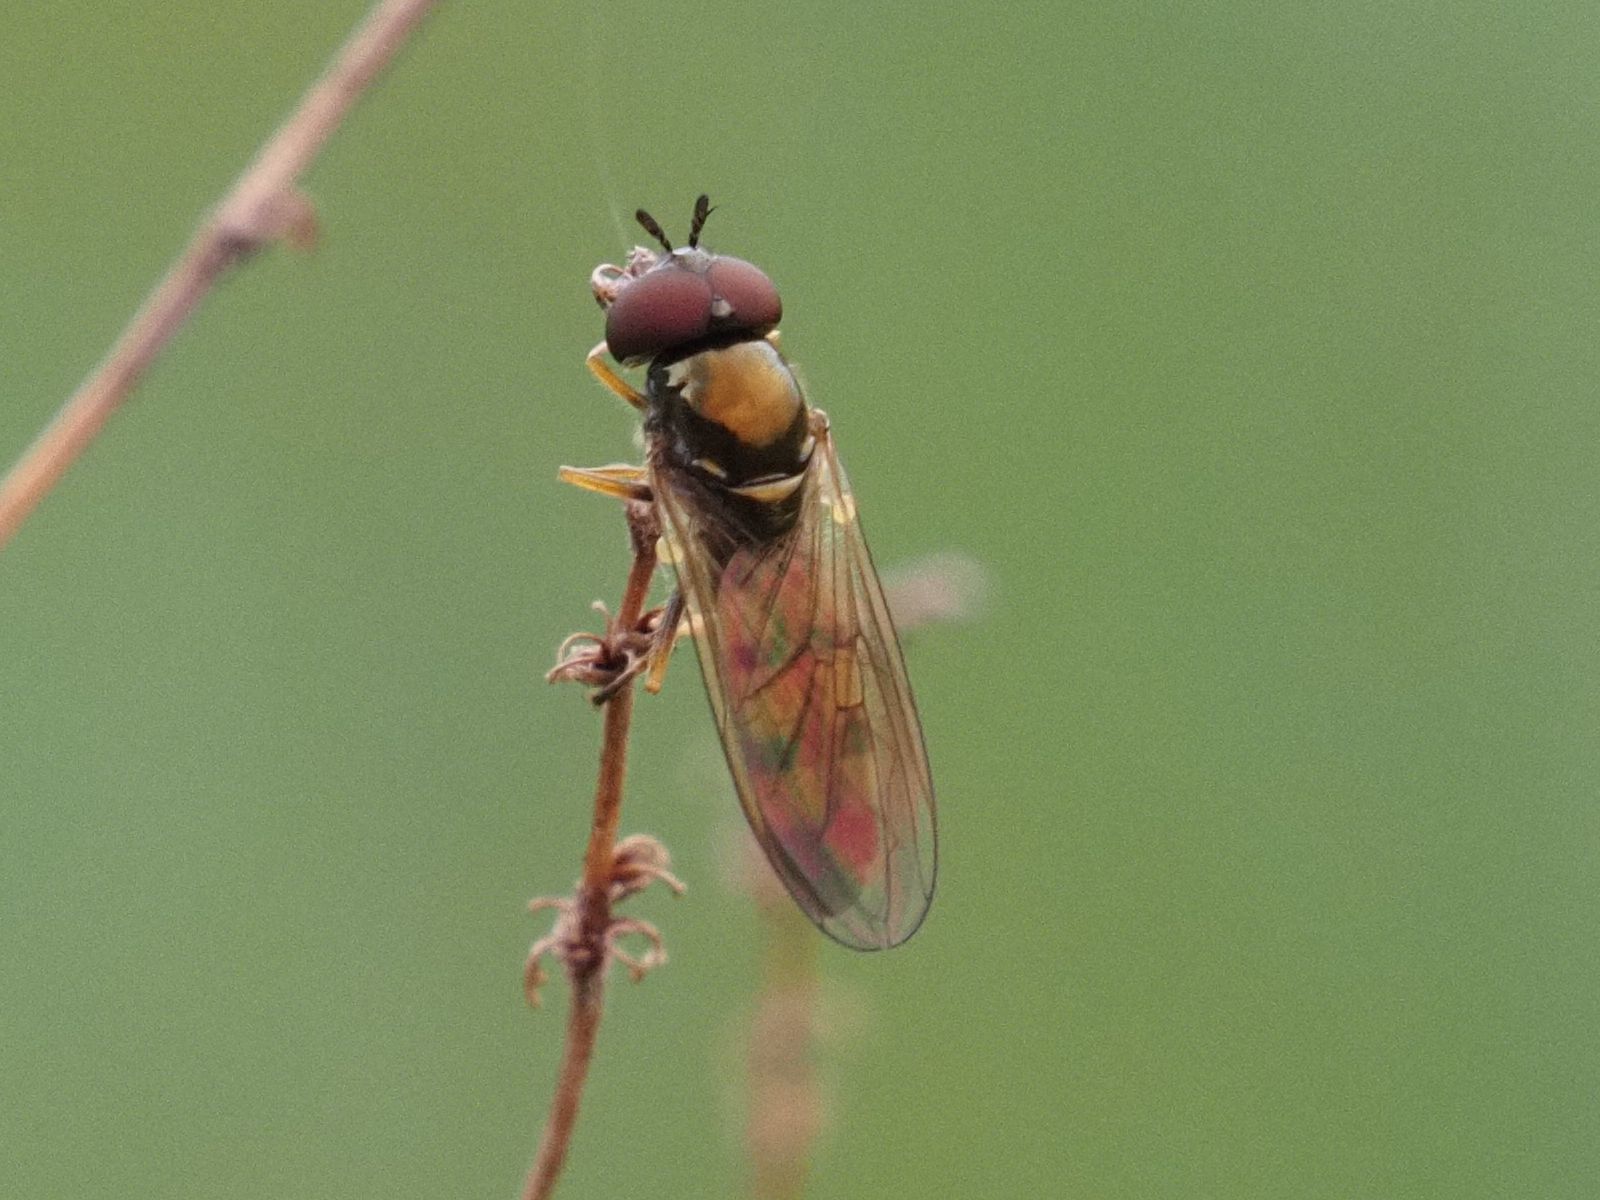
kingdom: Animalia
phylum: Arthropoda
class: Insecta
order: Diptera
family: Syrphidae
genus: Melanostoma
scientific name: Melanostoma mellina
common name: Hover fly
